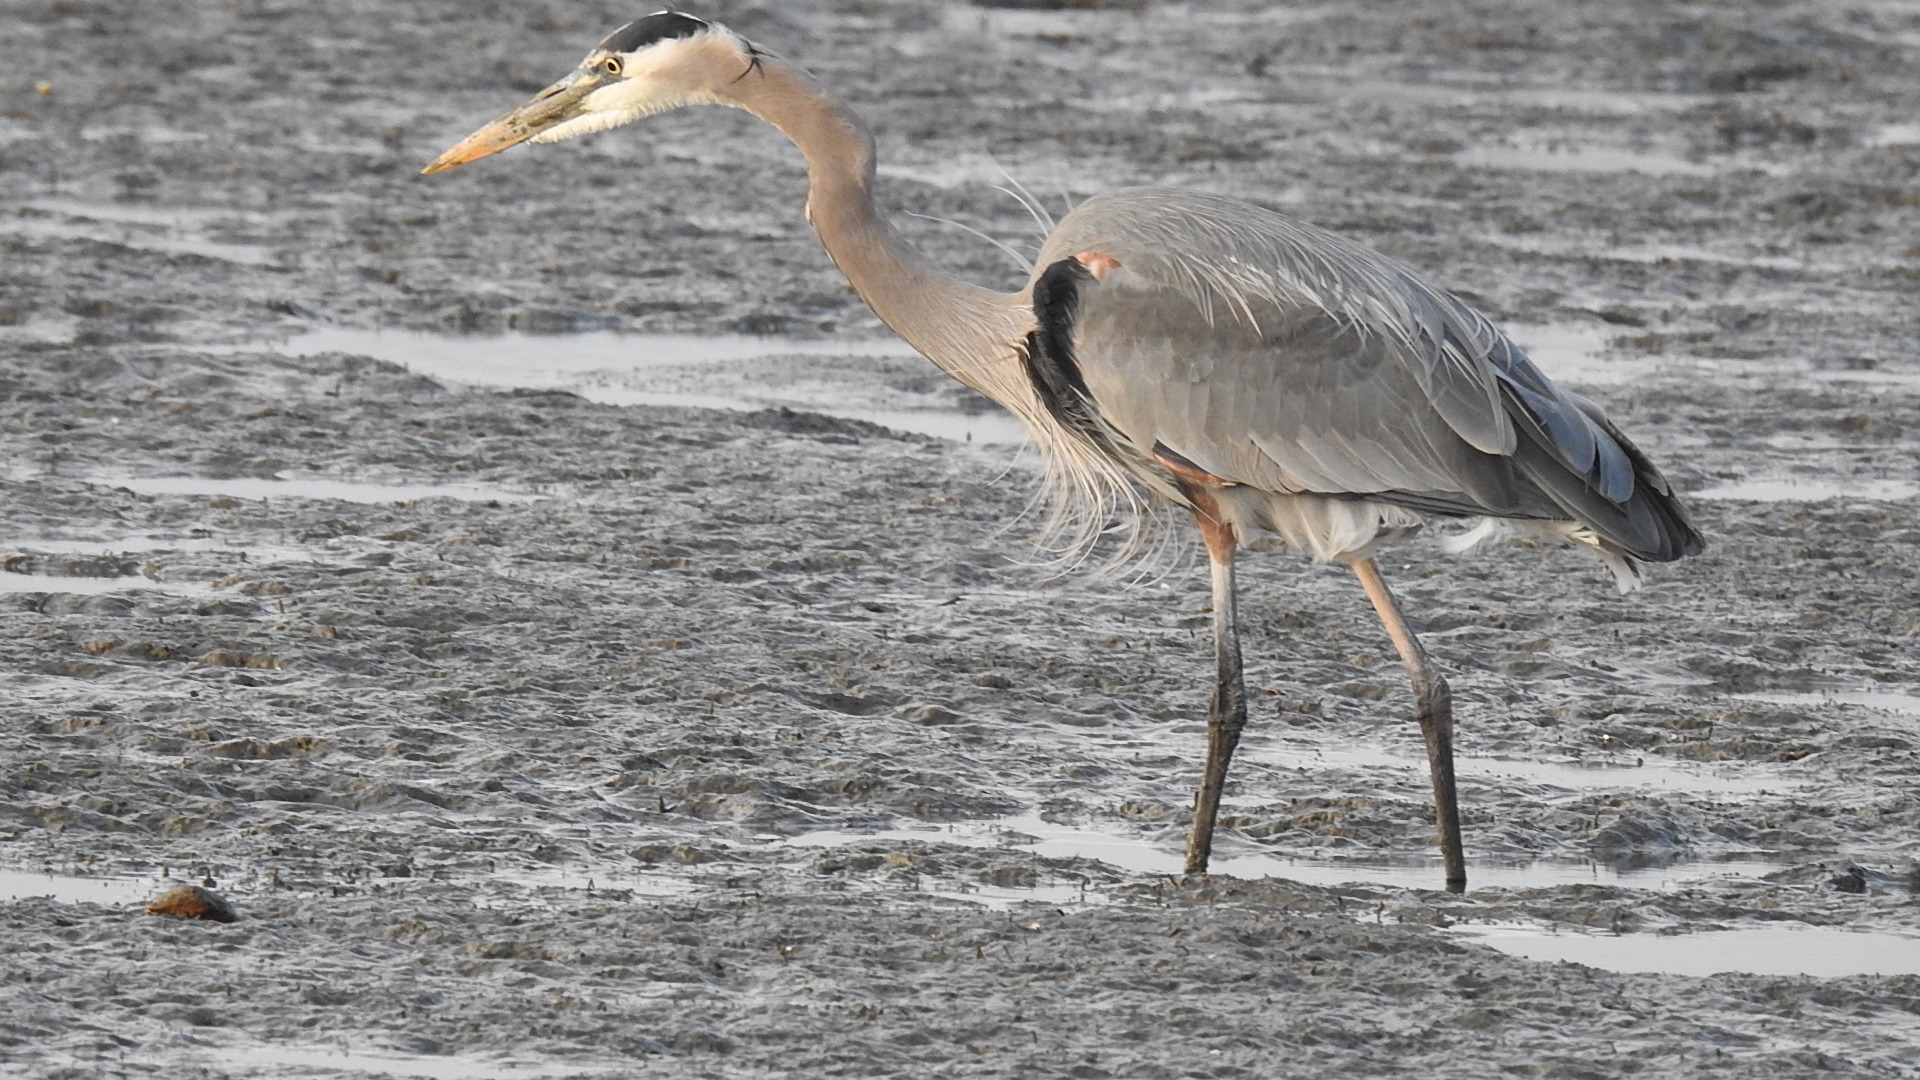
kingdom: Animalia
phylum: Chordata
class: Aves
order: Pelecaniformes
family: Ardeidae
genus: Ardea
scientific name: Ardea herodias
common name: Great blue heron
